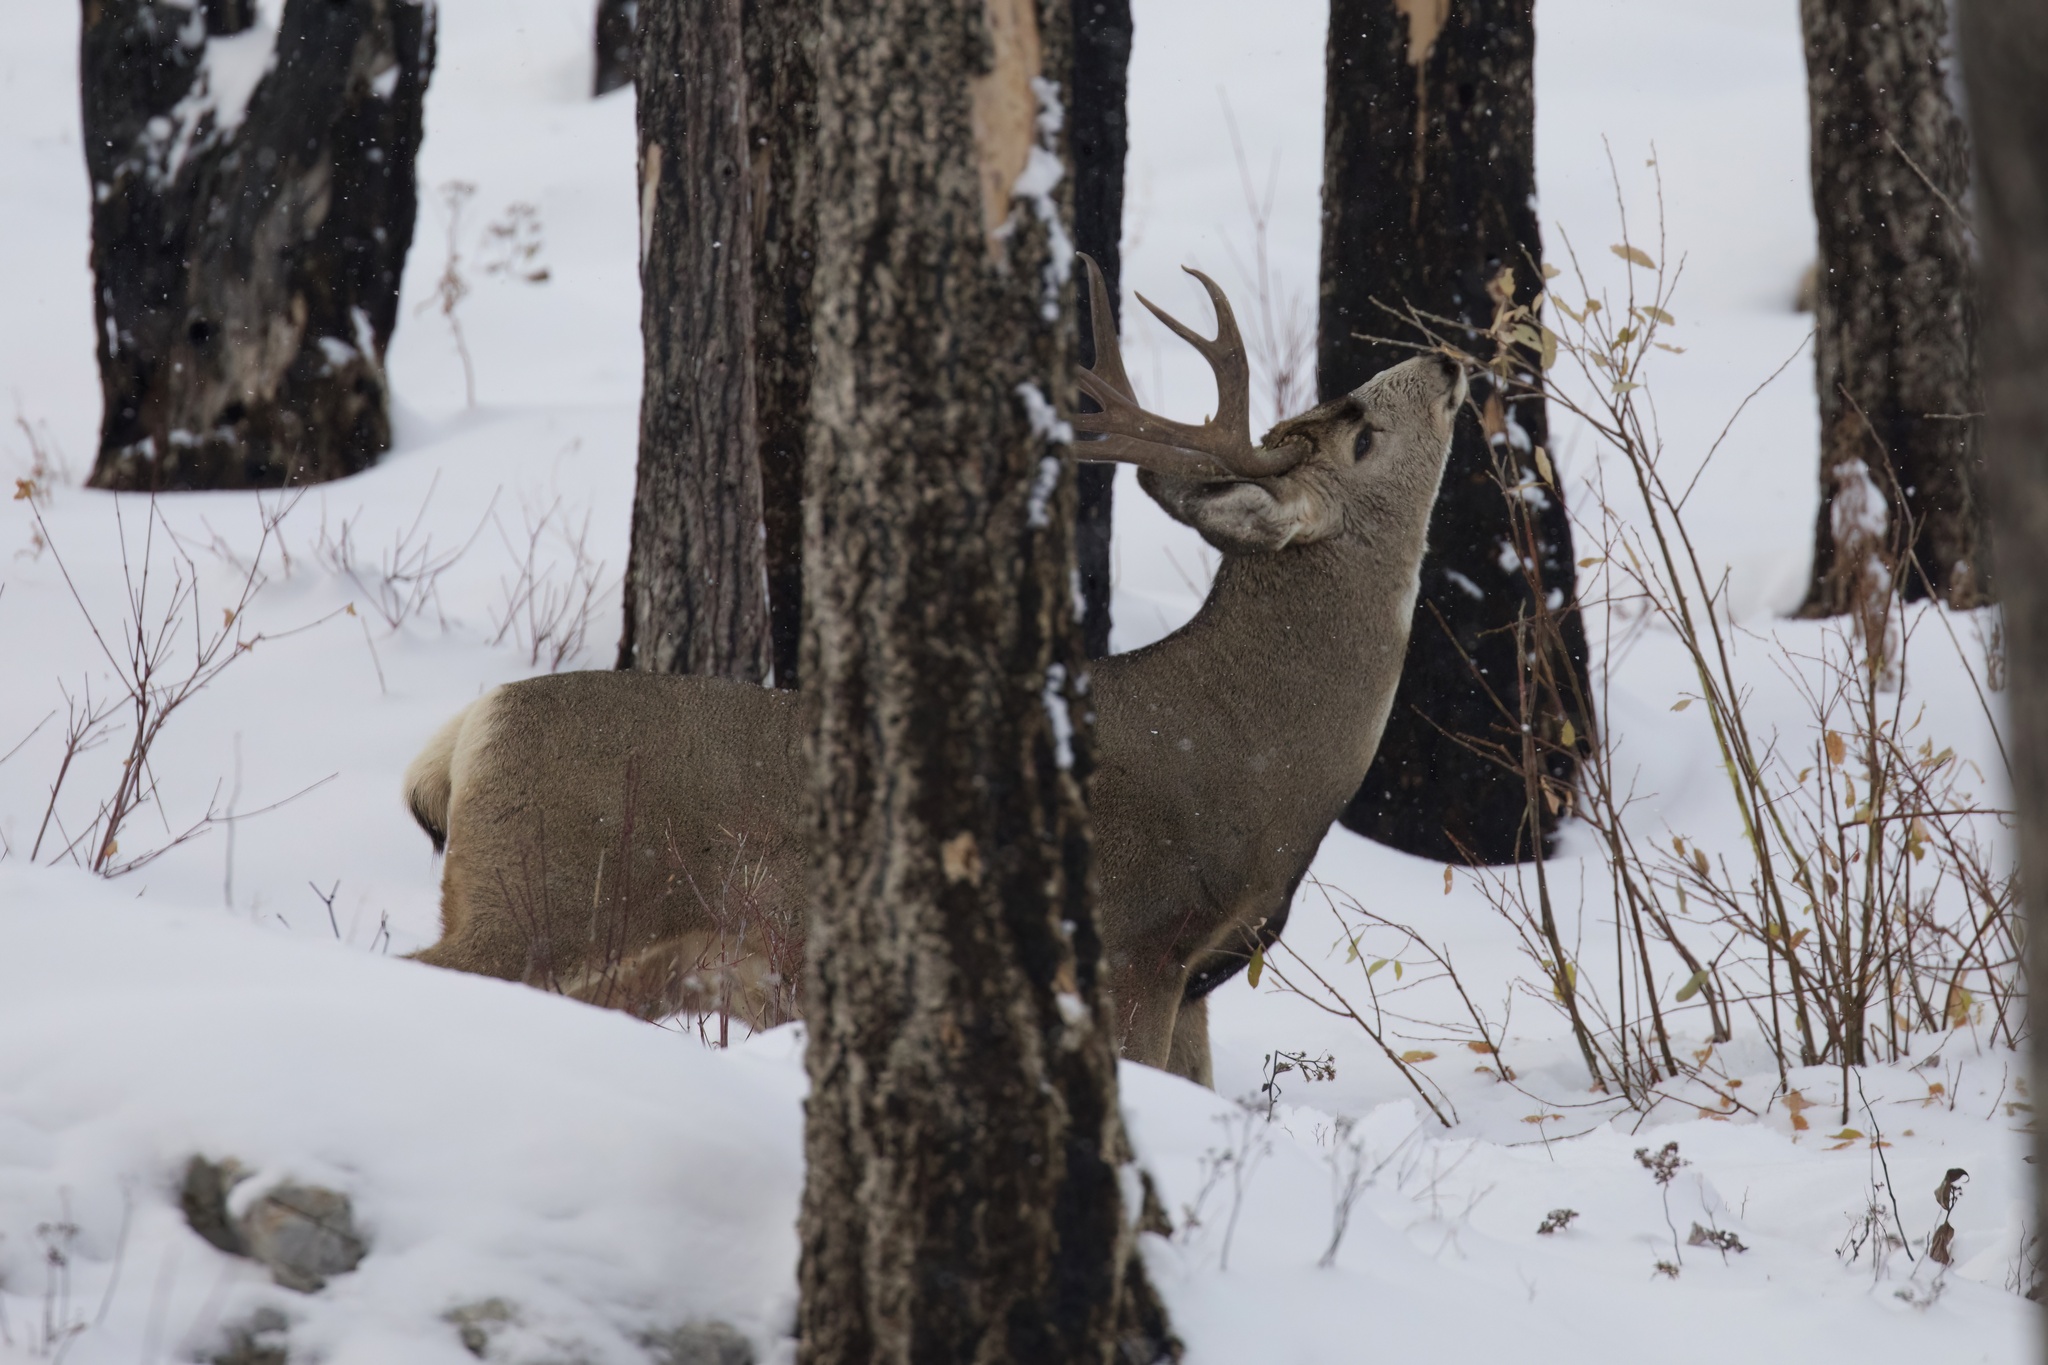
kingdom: Animalia
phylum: Chordata
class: Mammalia
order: Artiodactyla
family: Cervidae
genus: Odocoileus
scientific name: Odocoileus hemionus
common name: Mule deer
